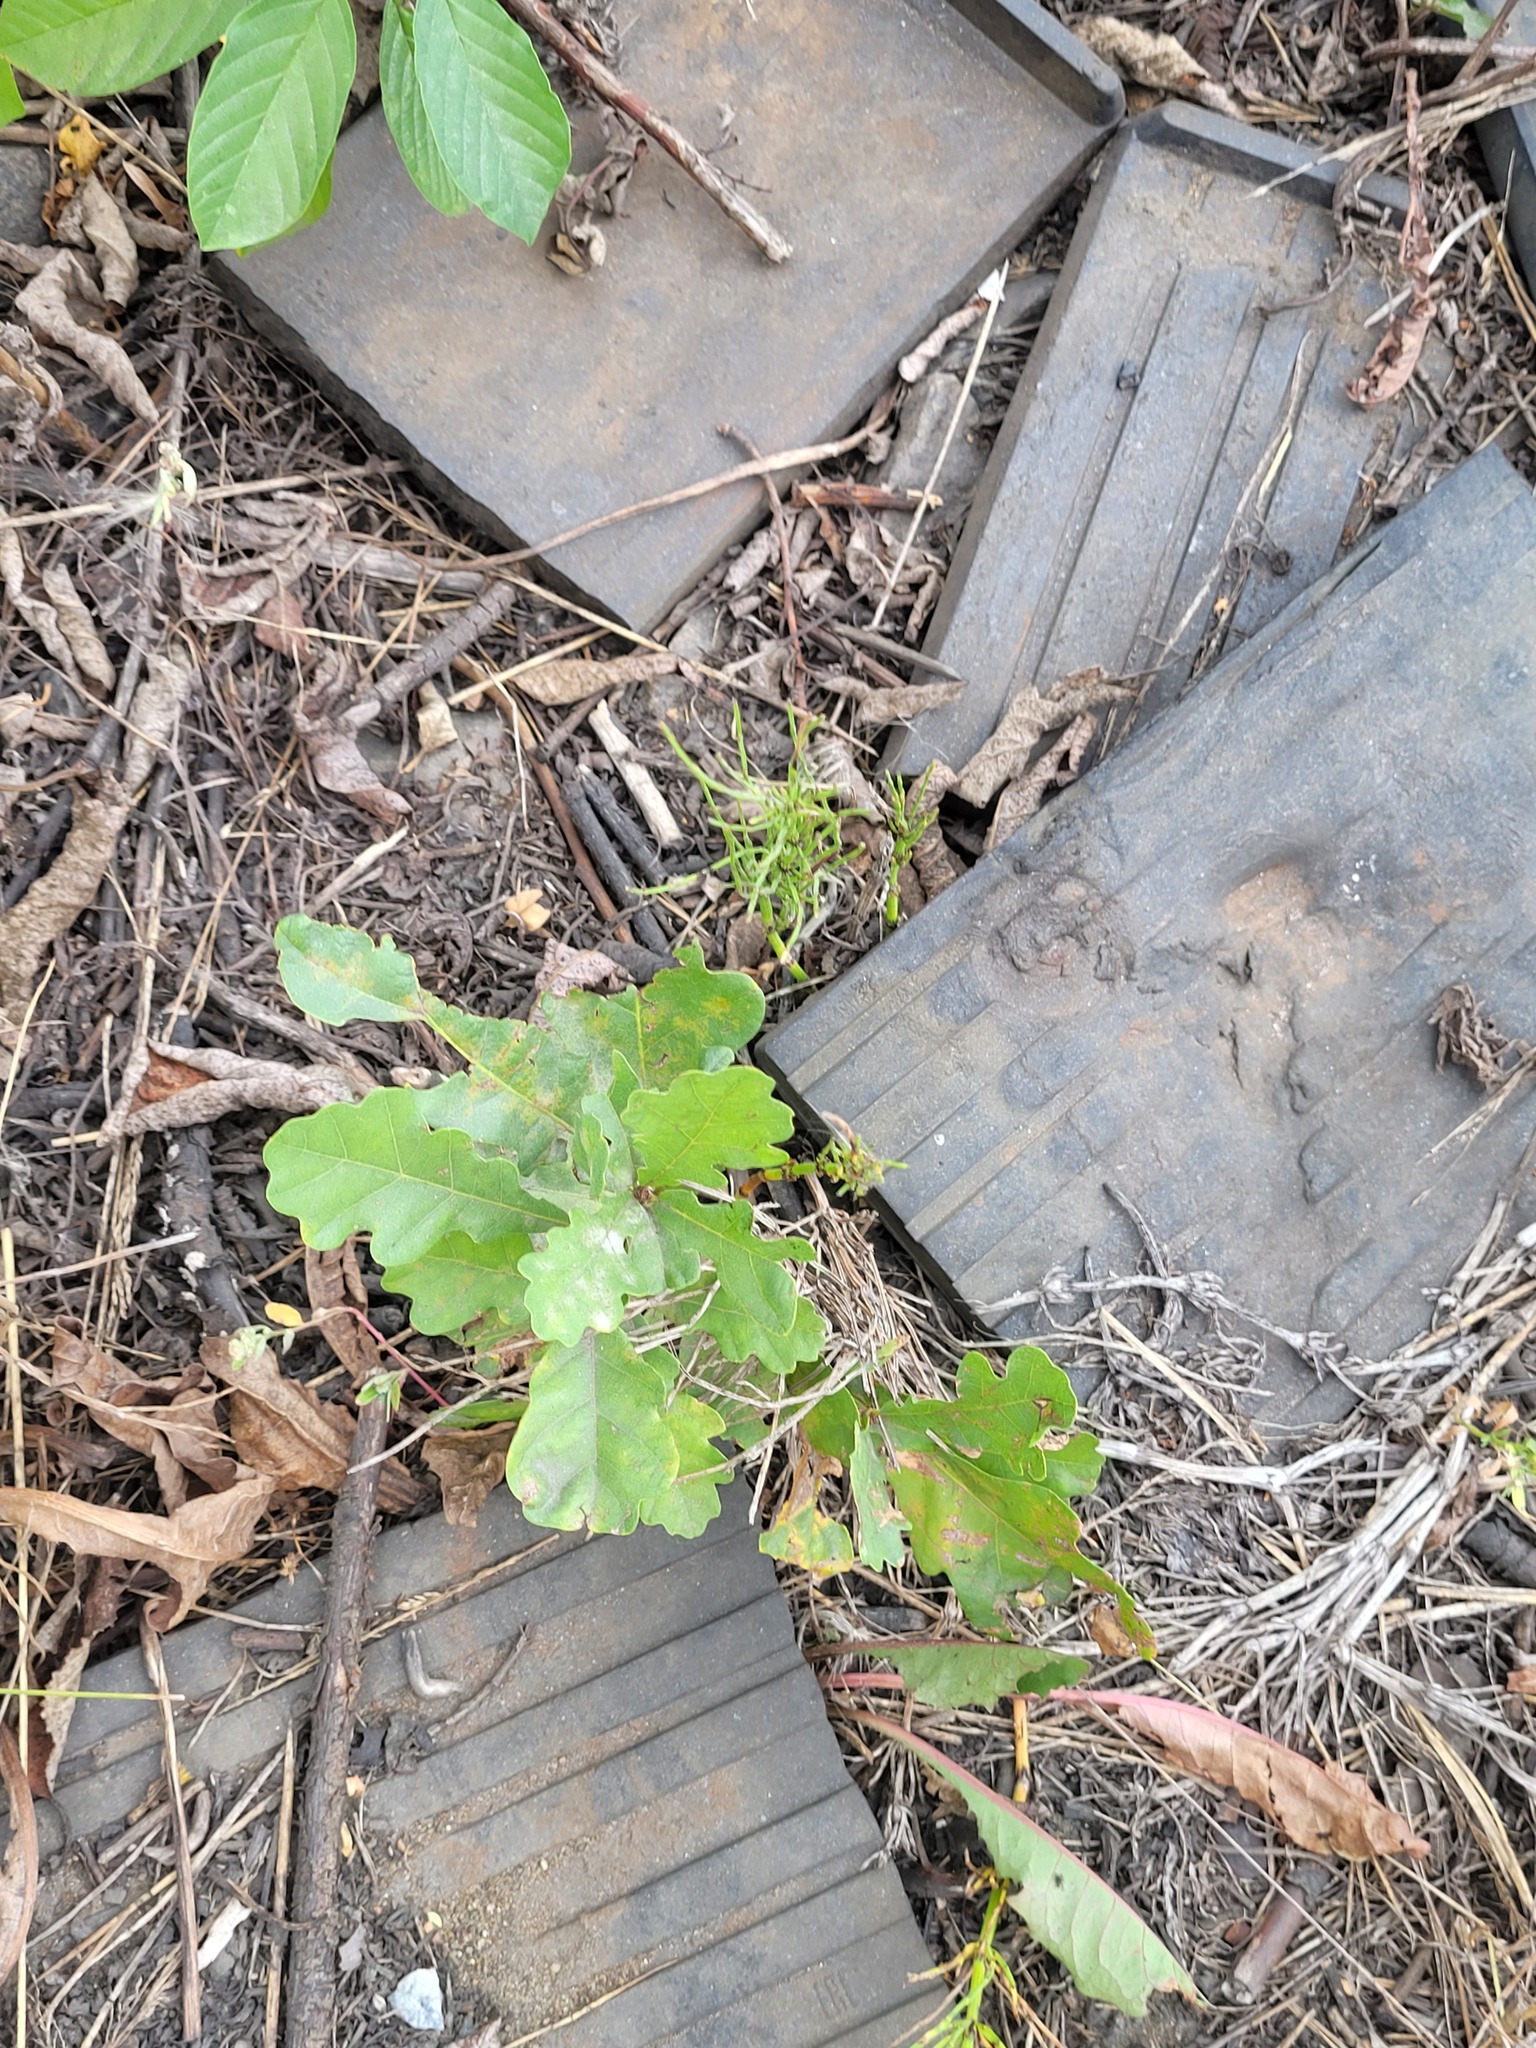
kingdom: Plantae
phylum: Tracheophyta
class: Magnoliopsida
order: Fagales
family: Fagaceae
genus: Quercus
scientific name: Quercus robur
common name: Pedunculate oak
